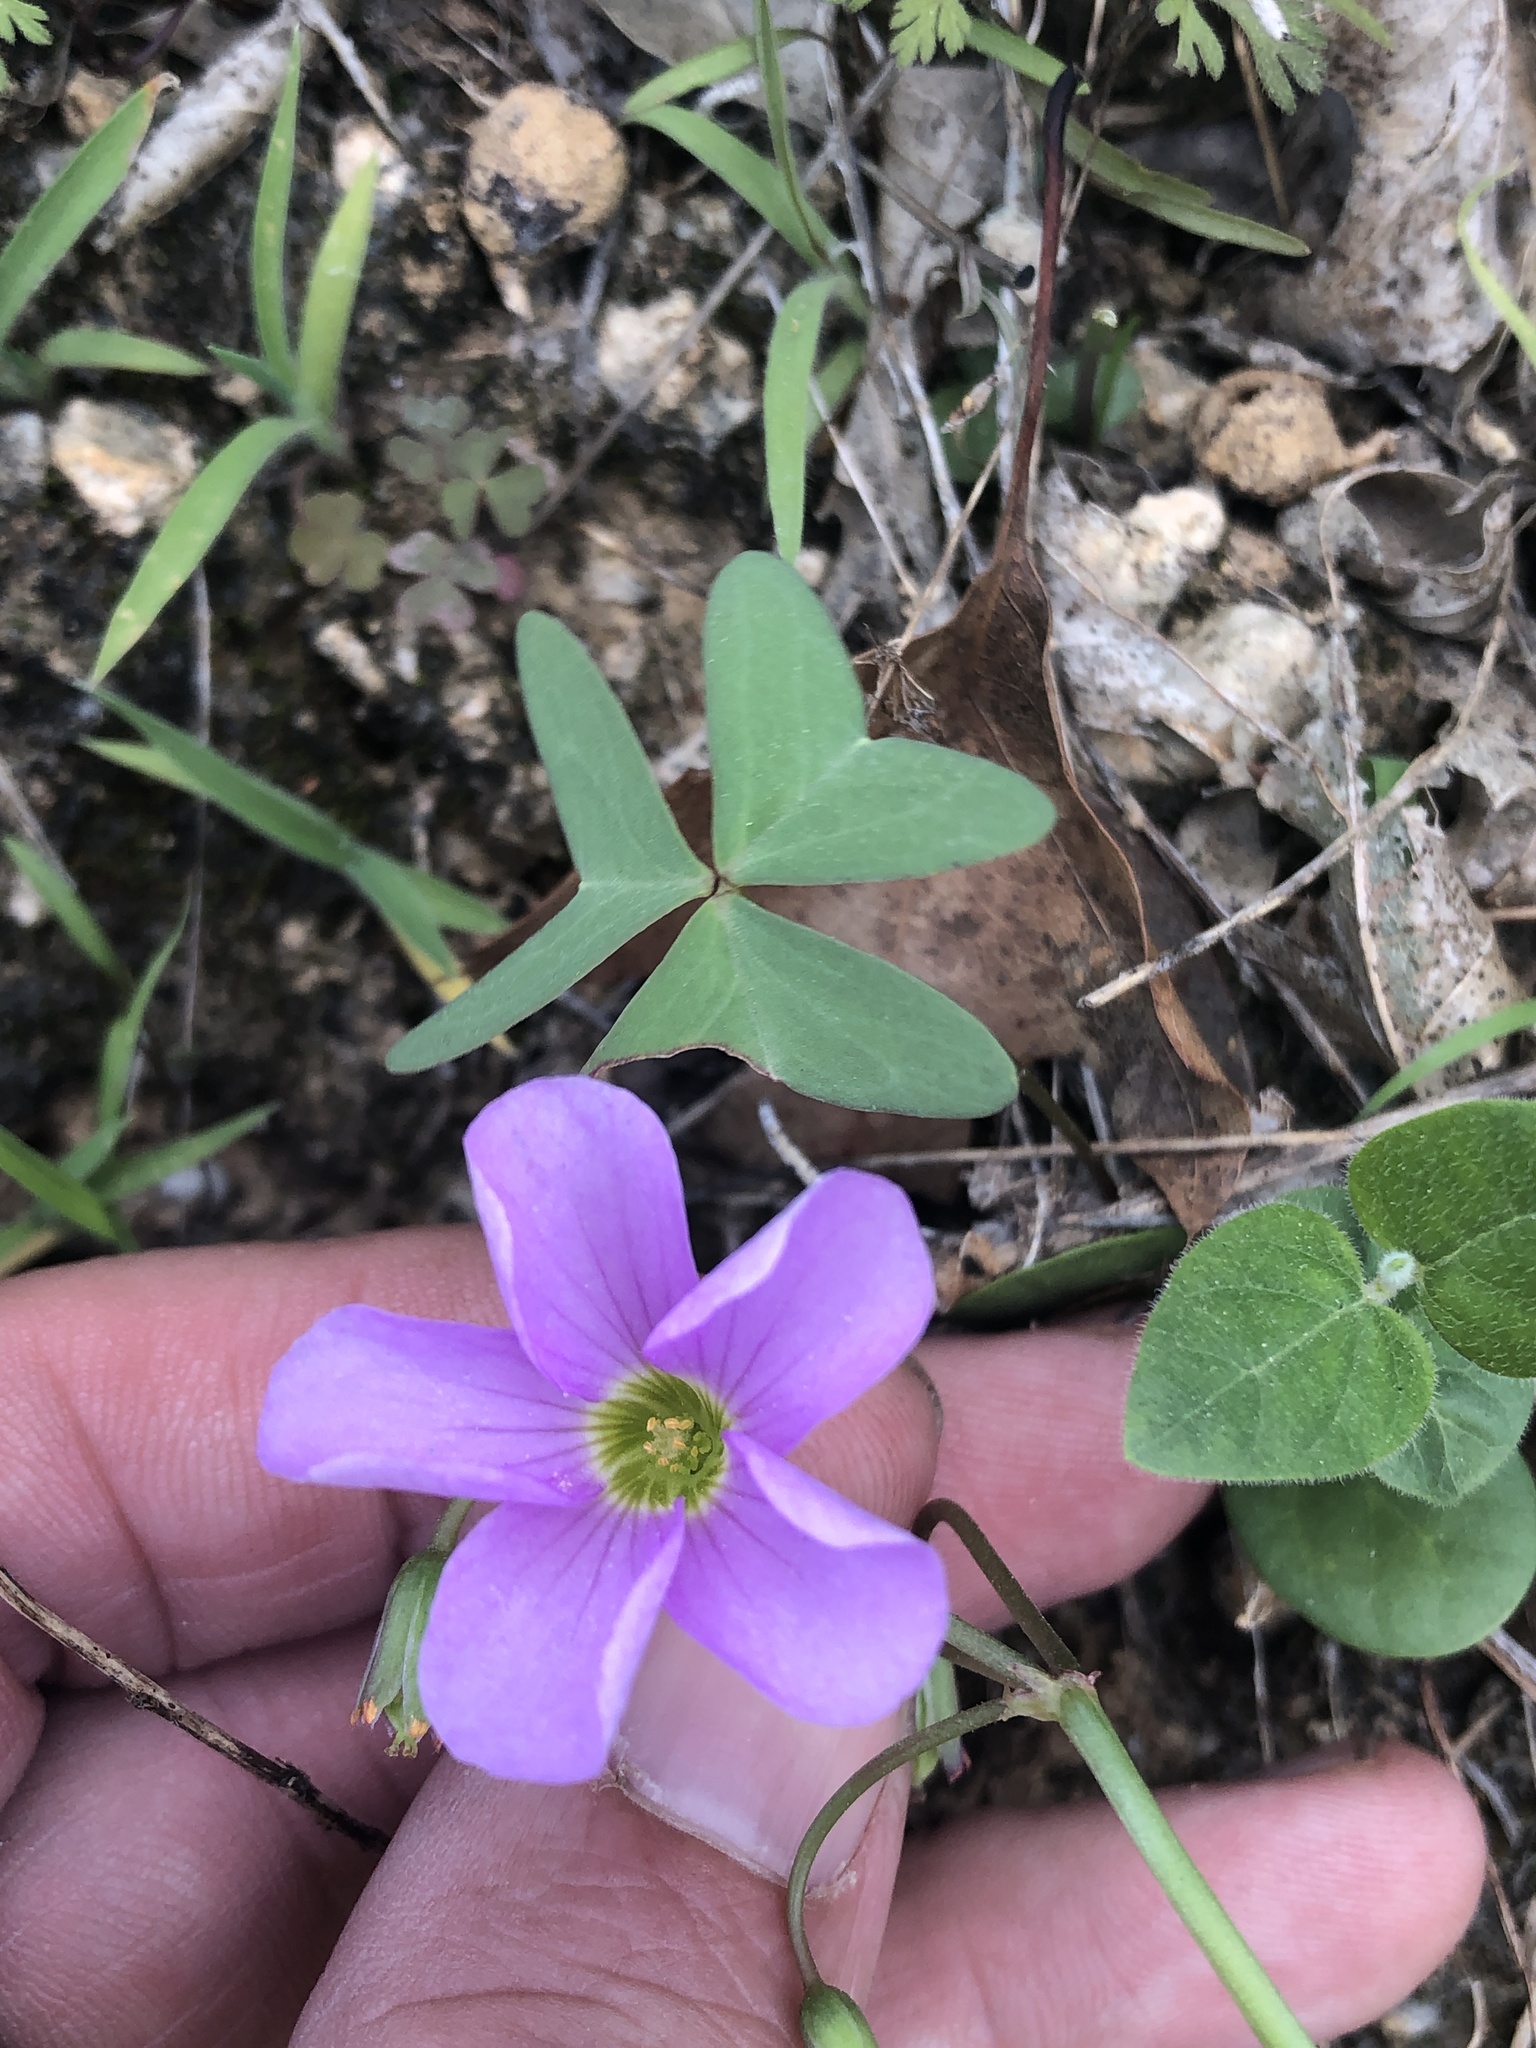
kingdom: Plantae
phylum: Tracheophyta
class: Magnoliopsida
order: Oxalidales
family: Oxalidaceae
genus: Oxalis
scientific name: Oxalis drummondii
